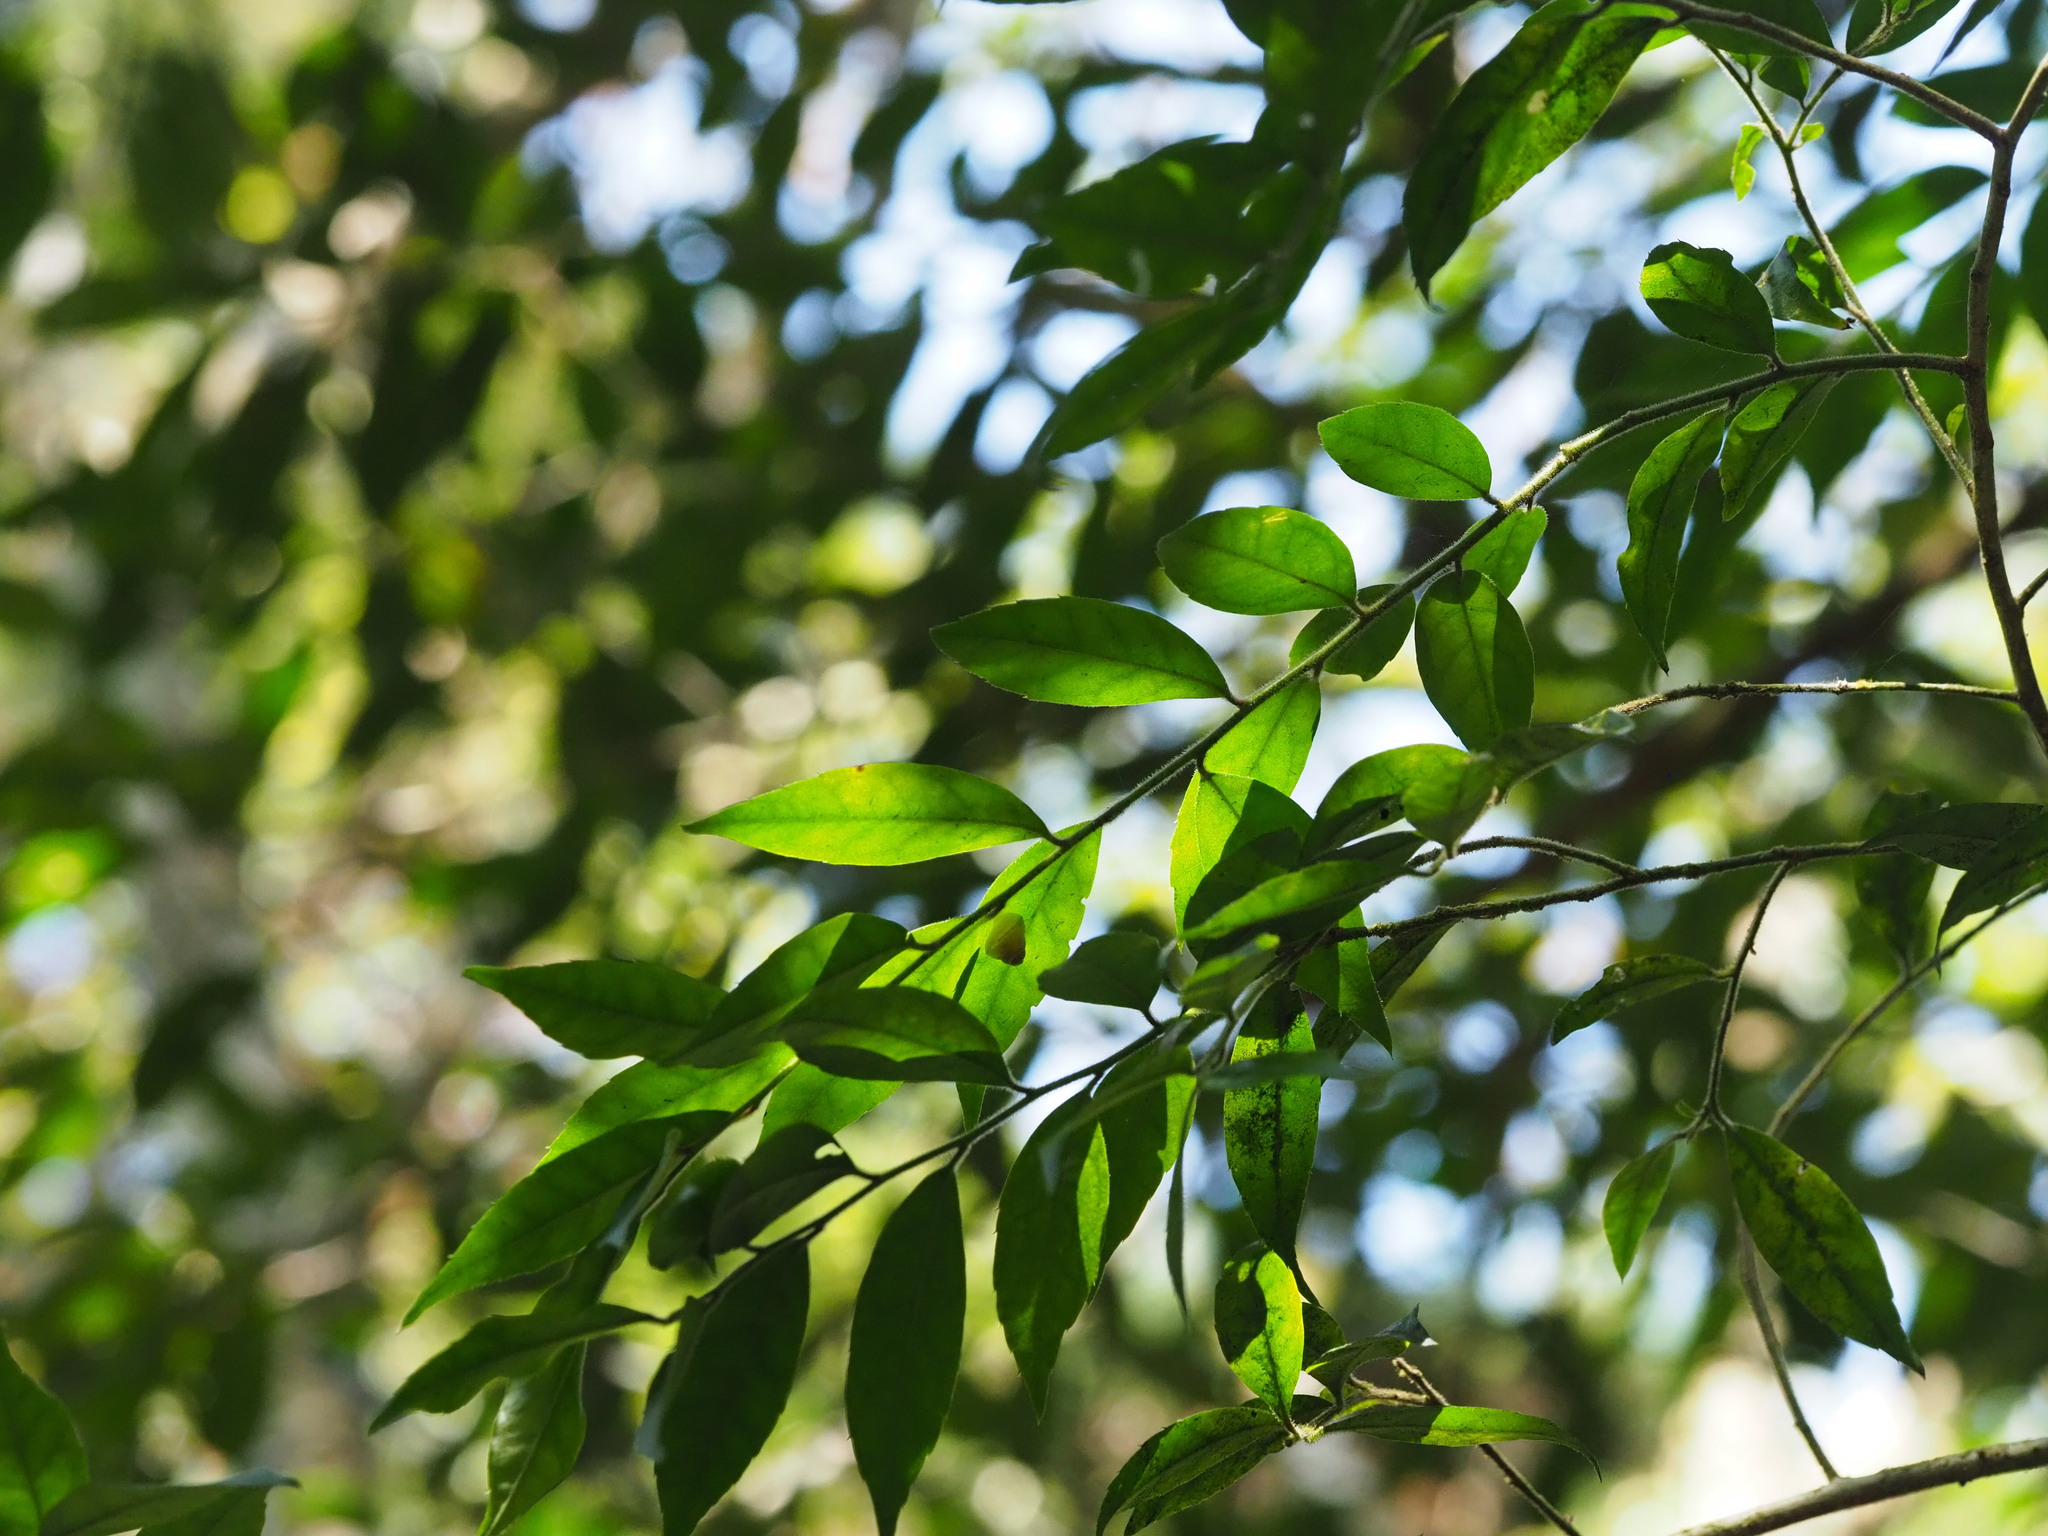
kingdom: Plantae
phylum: Tracheophyta
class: Magnoliopsida
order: Aquifoliales
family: Aquifoliaceae
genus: Ilex
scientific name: Ilex pubescens
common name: Pubescent holly
